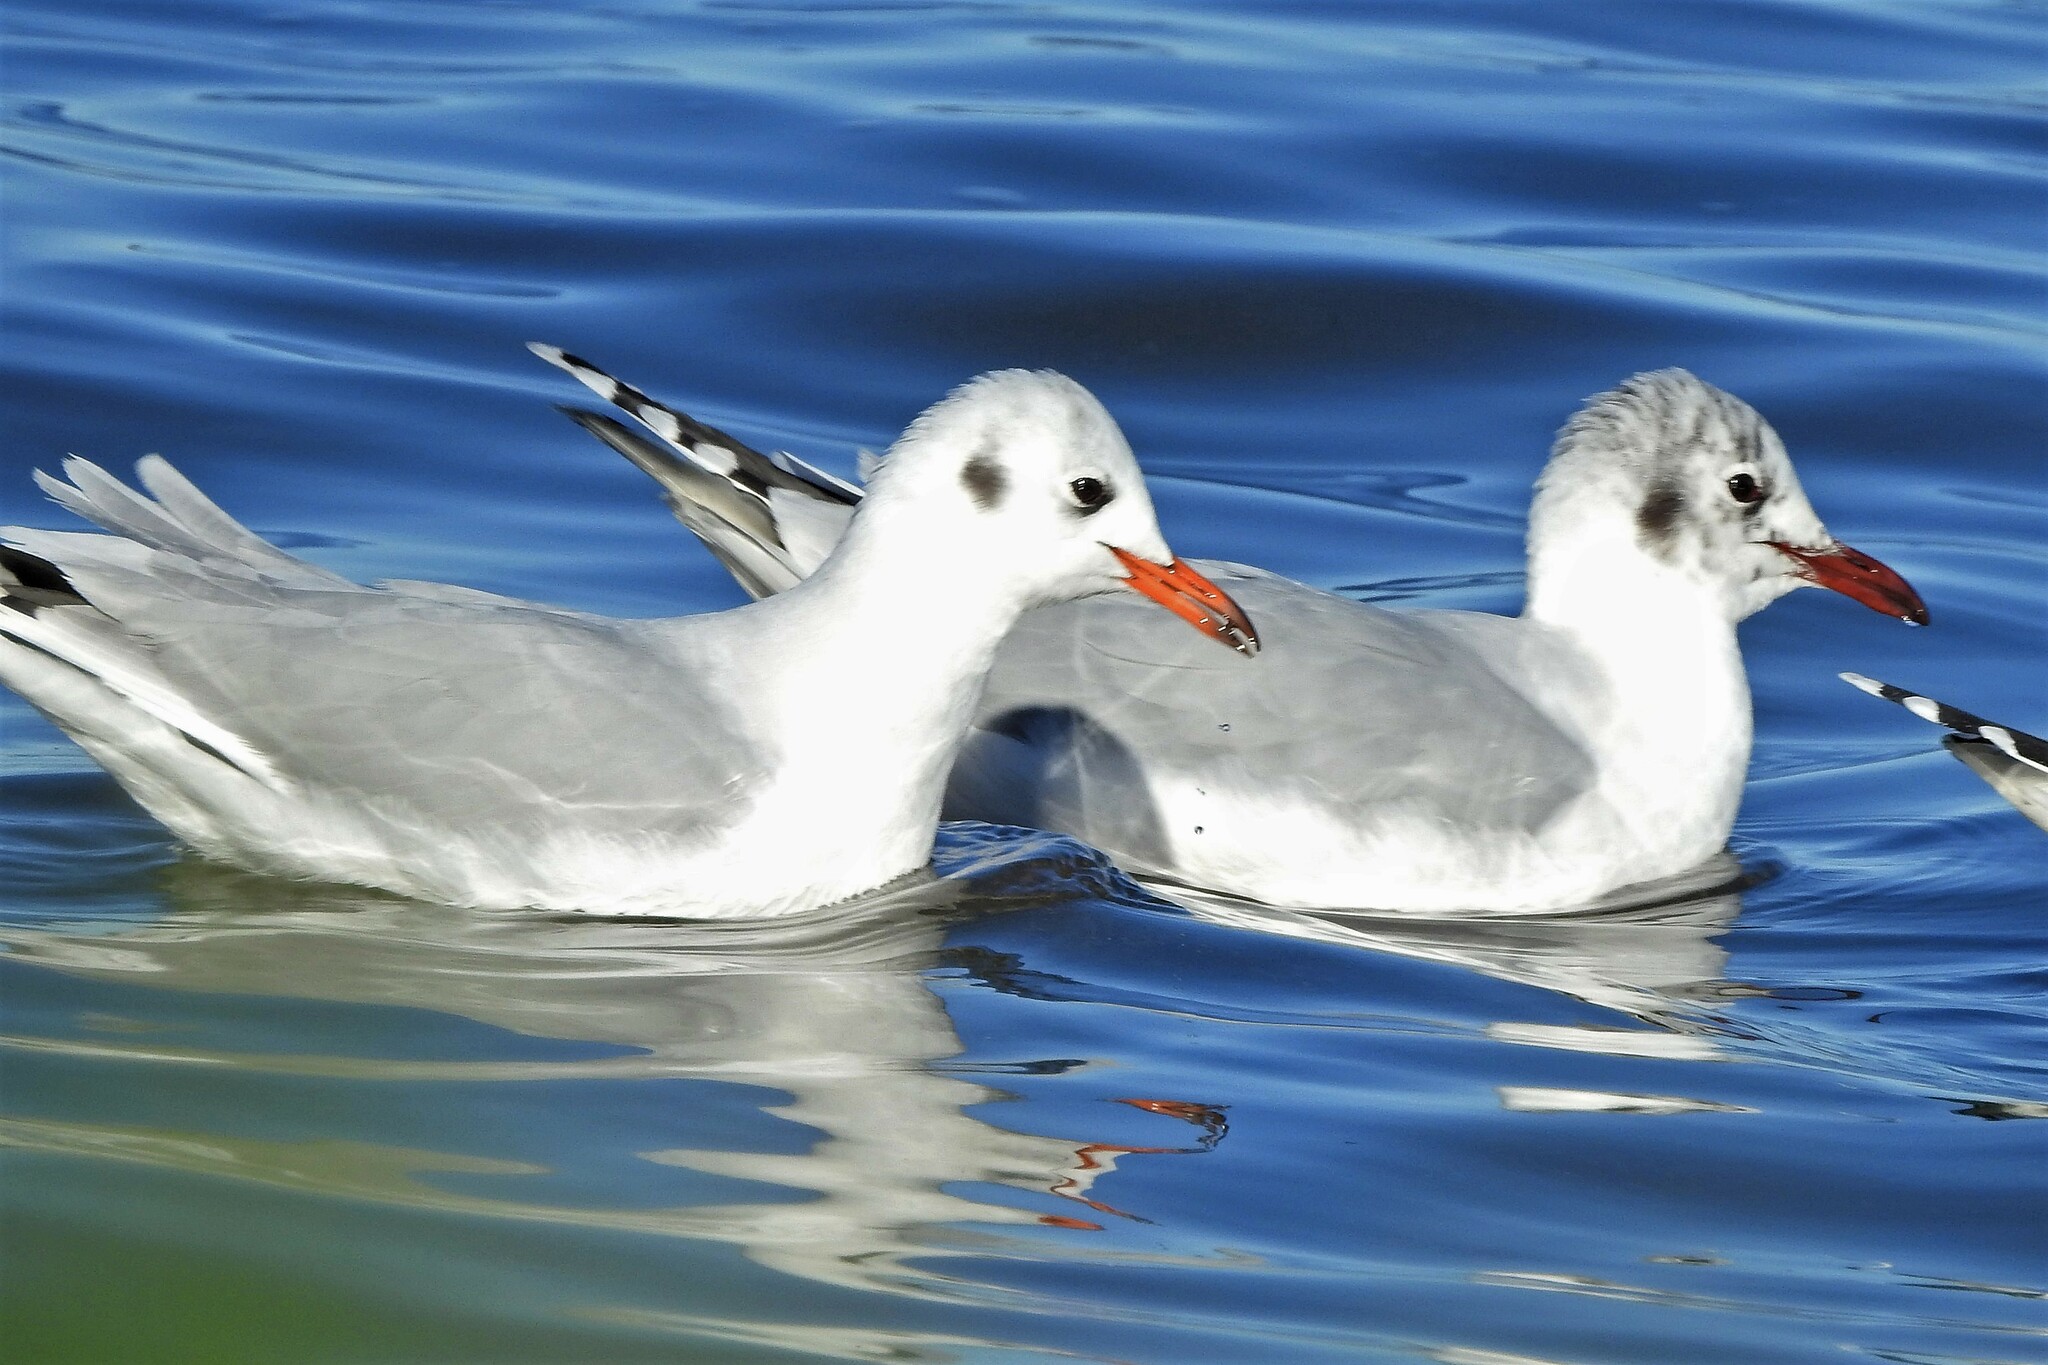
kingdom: Animalia
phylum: Chordata
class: Aves
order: Charadriiformes
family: Laridae
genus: Chroicocephalus
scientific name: Chroicocephalus maculipennis
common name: Brown-hooded gull
